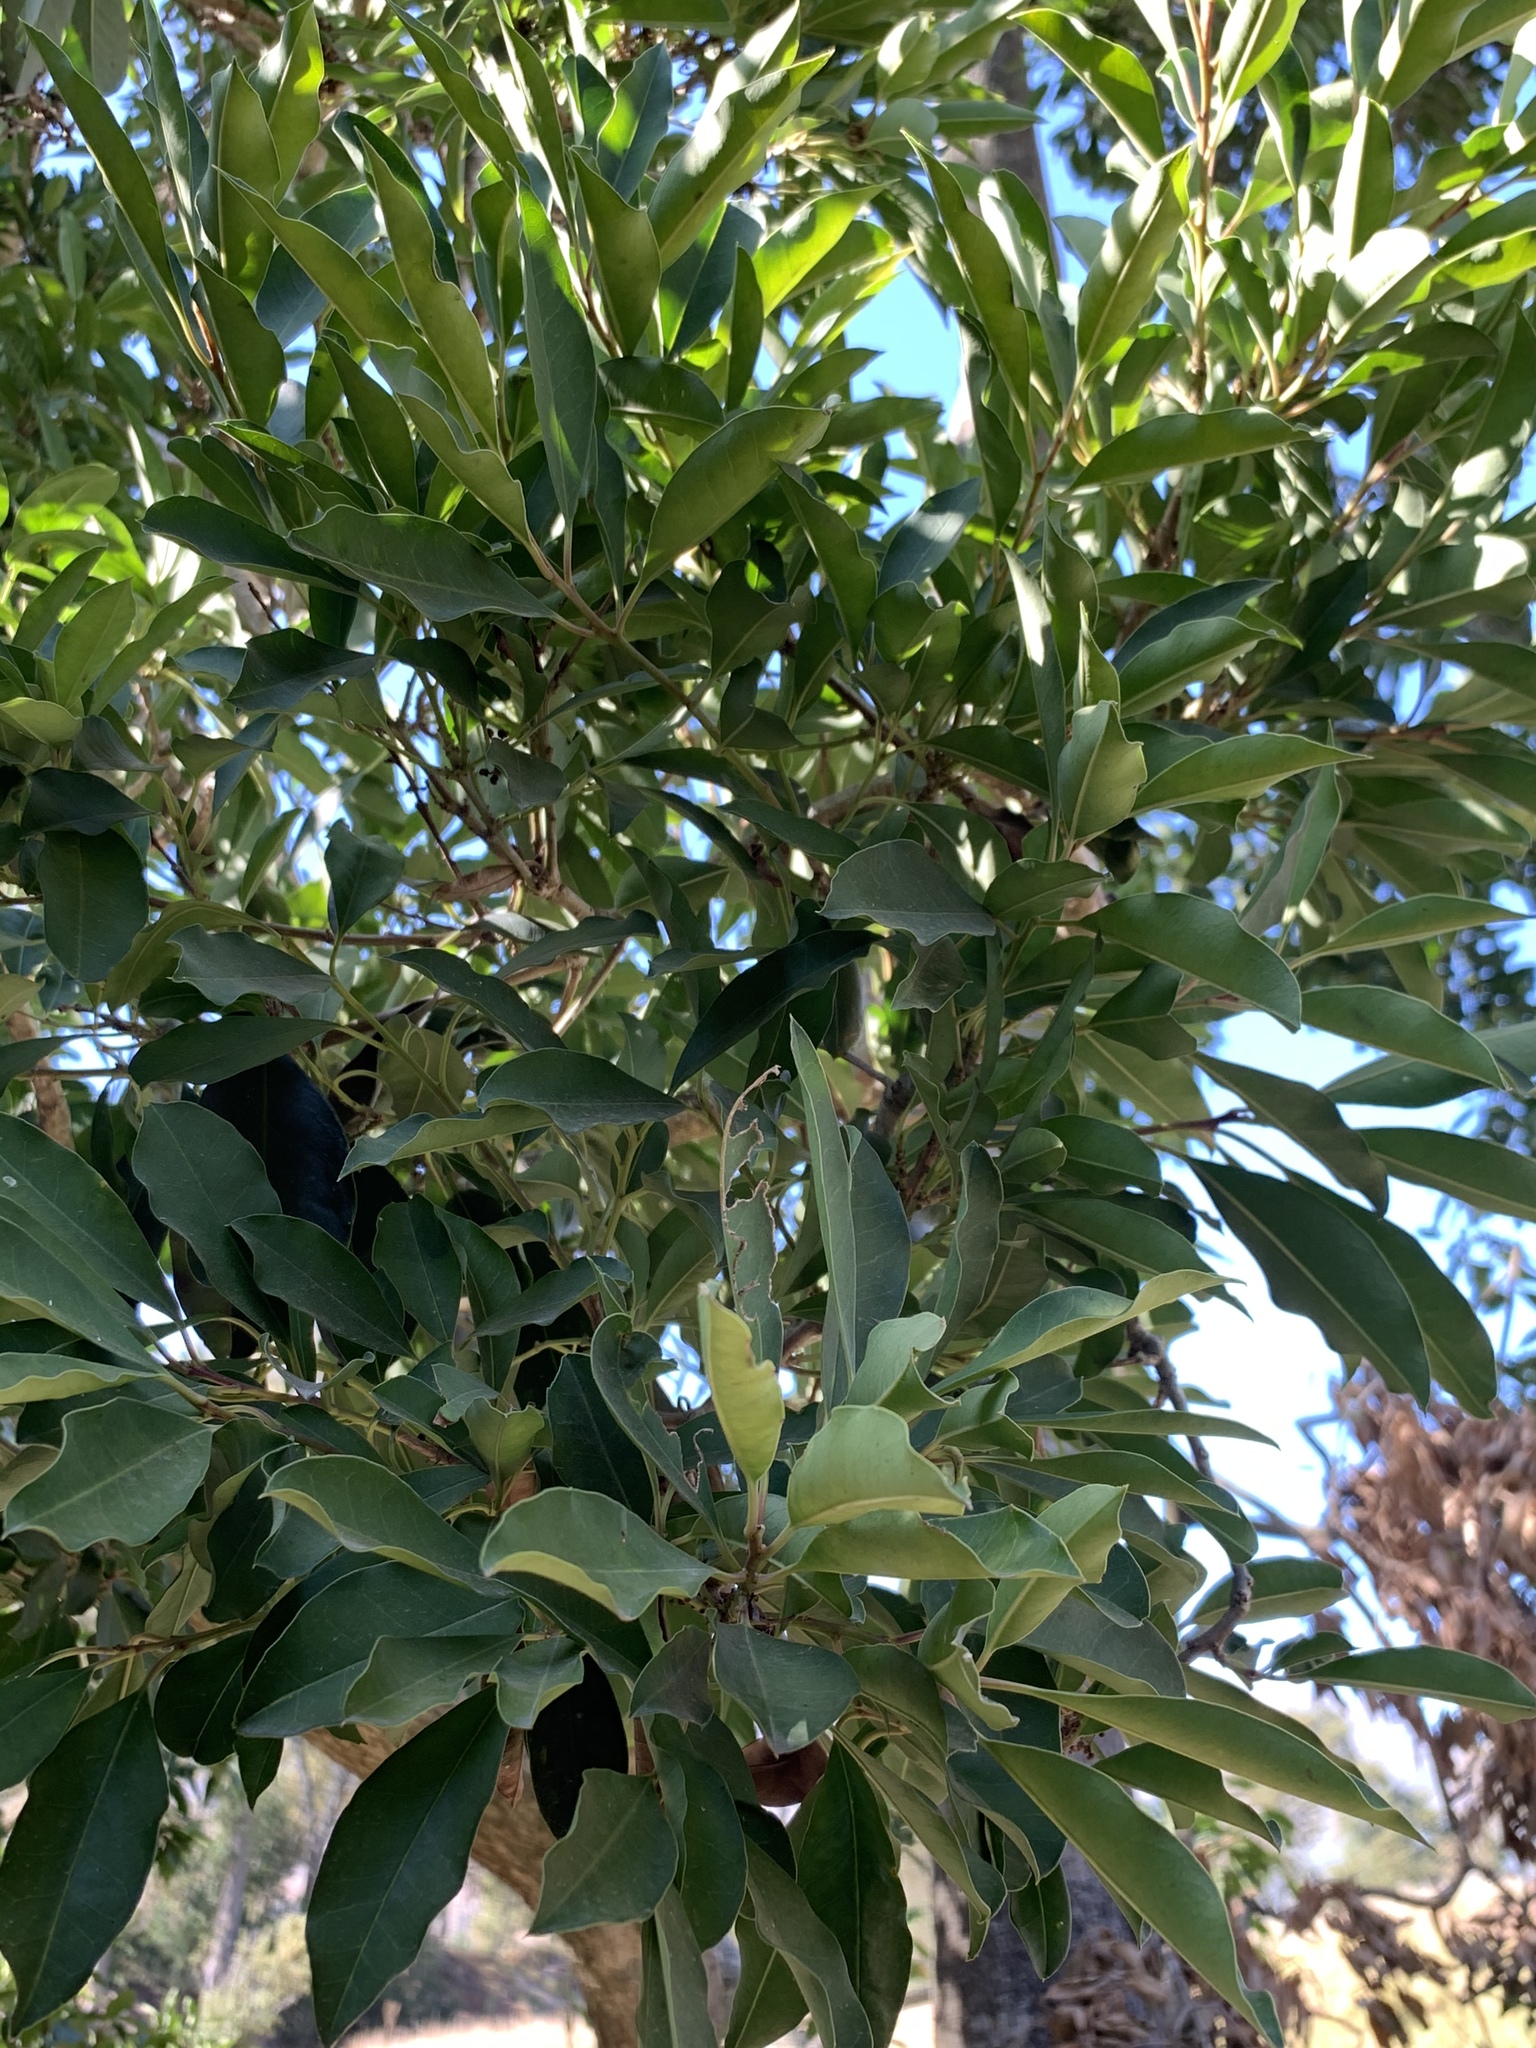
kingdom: Plantae
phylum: Tracheophyta
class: Magnoliopsida
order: Aquifoliales
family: Aquifoliaceae
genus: Ilex
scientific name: Ilex mitis
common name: African holly
